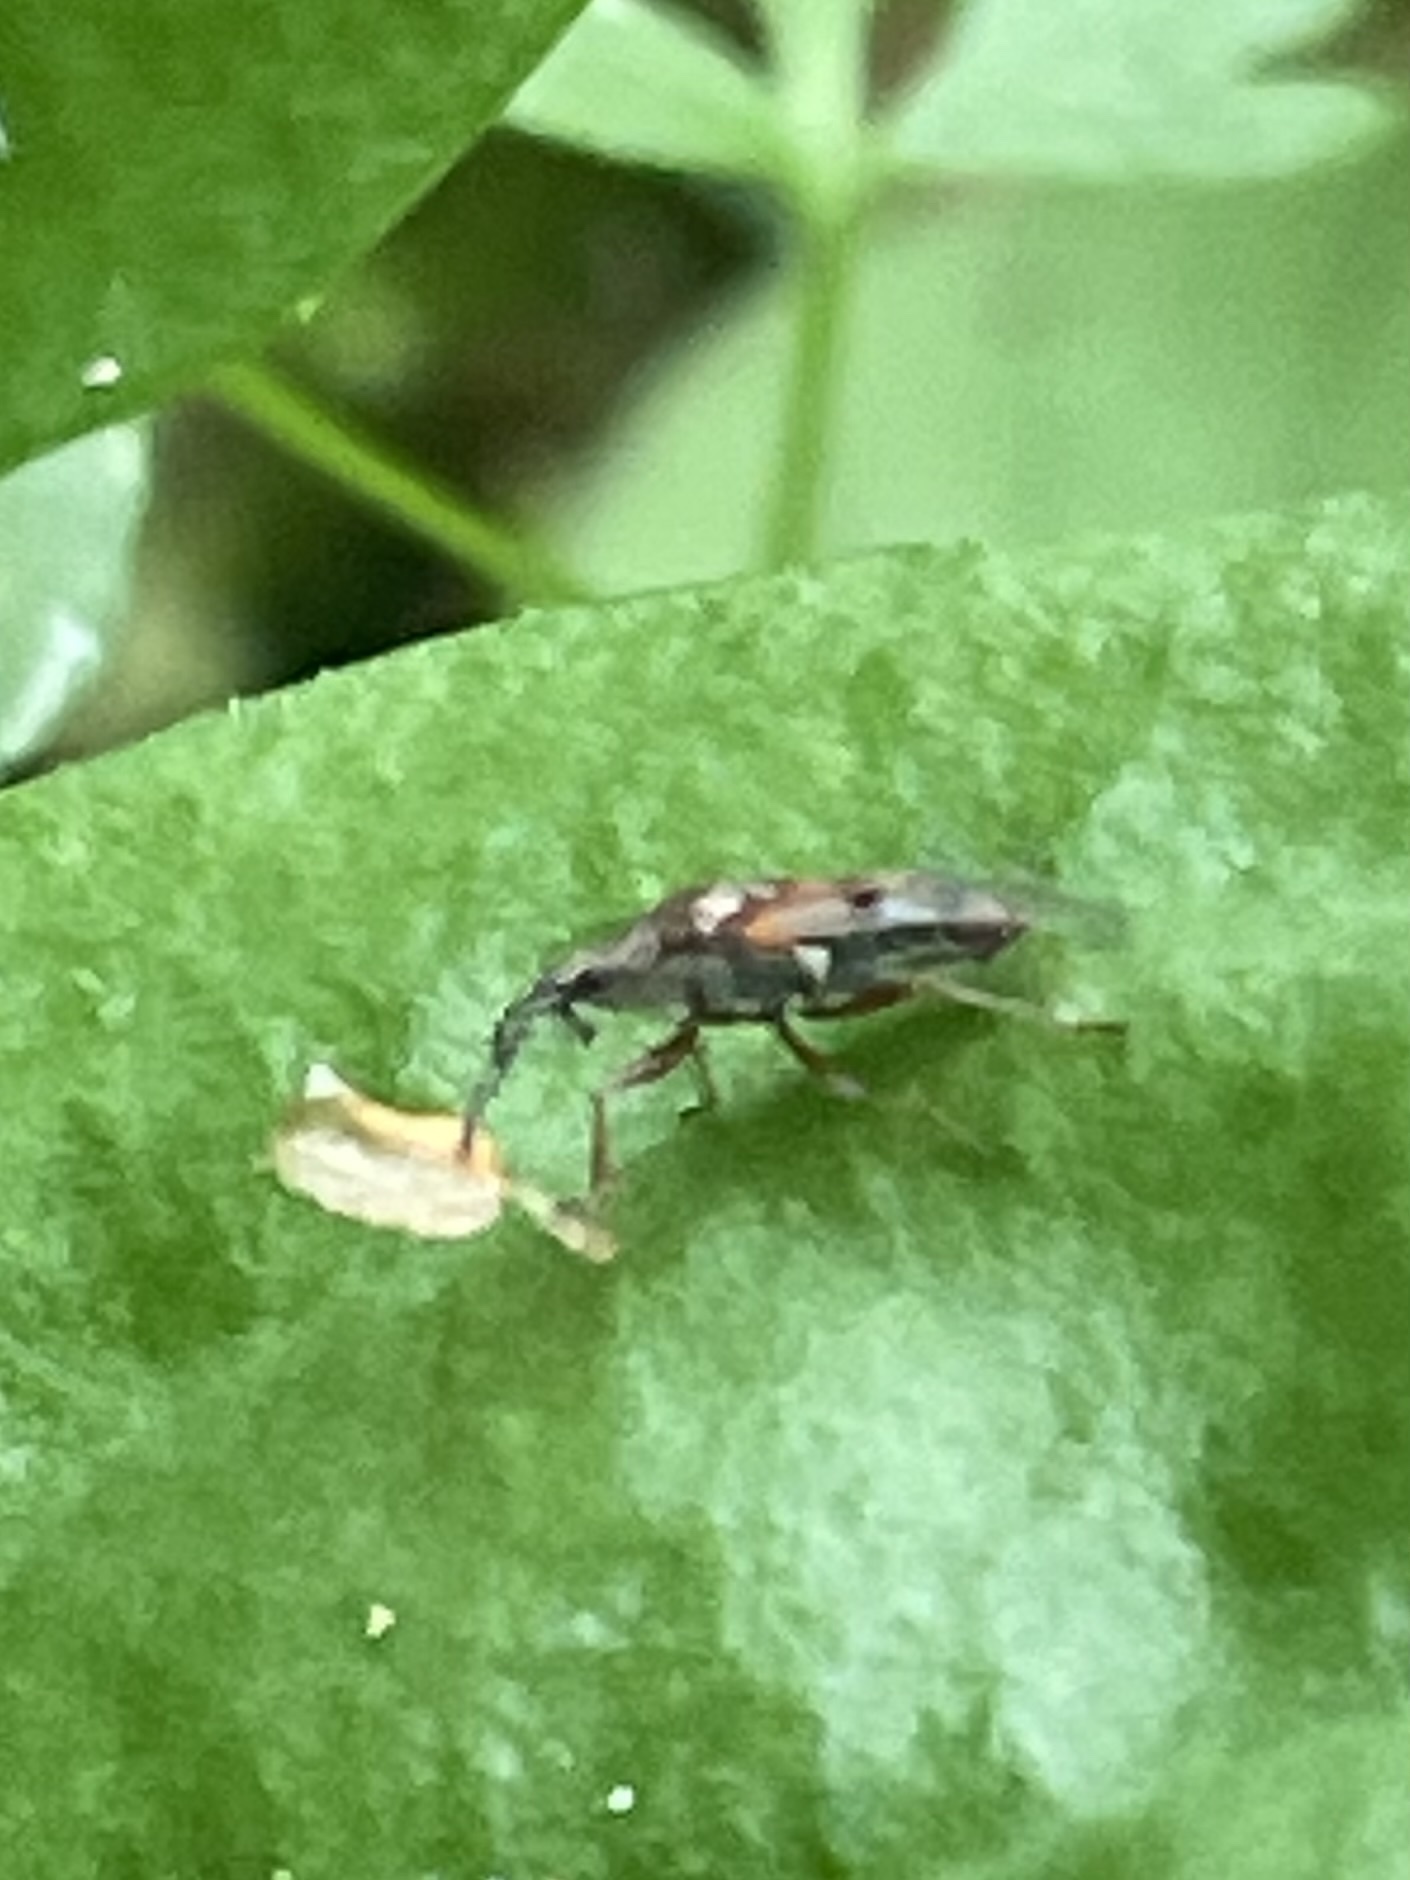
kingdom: Animalia
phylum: Arthropoda
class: Insecta
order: Hemiptera
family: Lygaeidae
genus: Kleidocerys
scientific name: Kleidocerys resedae
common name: Birch catkin bug
